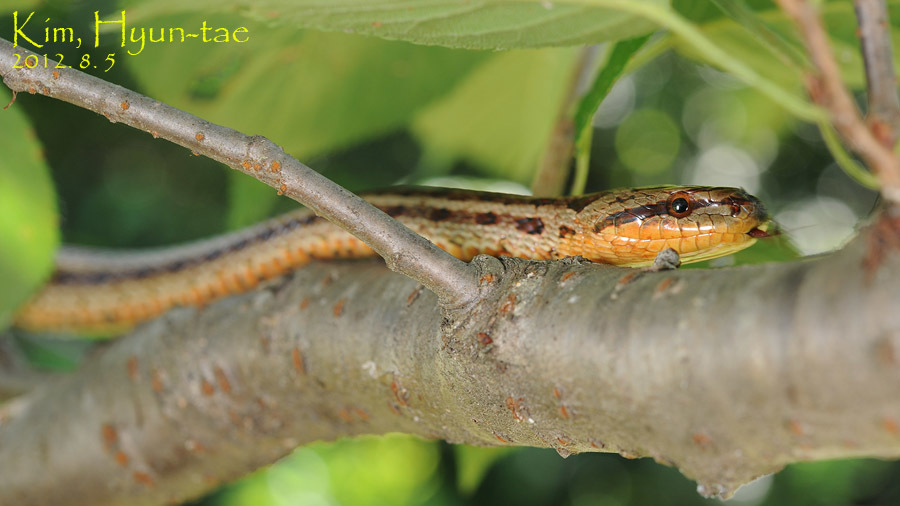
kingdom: Animalia
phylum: Chordata
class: Squamata
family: Colubridae
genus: Elaphe
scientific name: Elaphe dione
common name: Dione ratsnake
